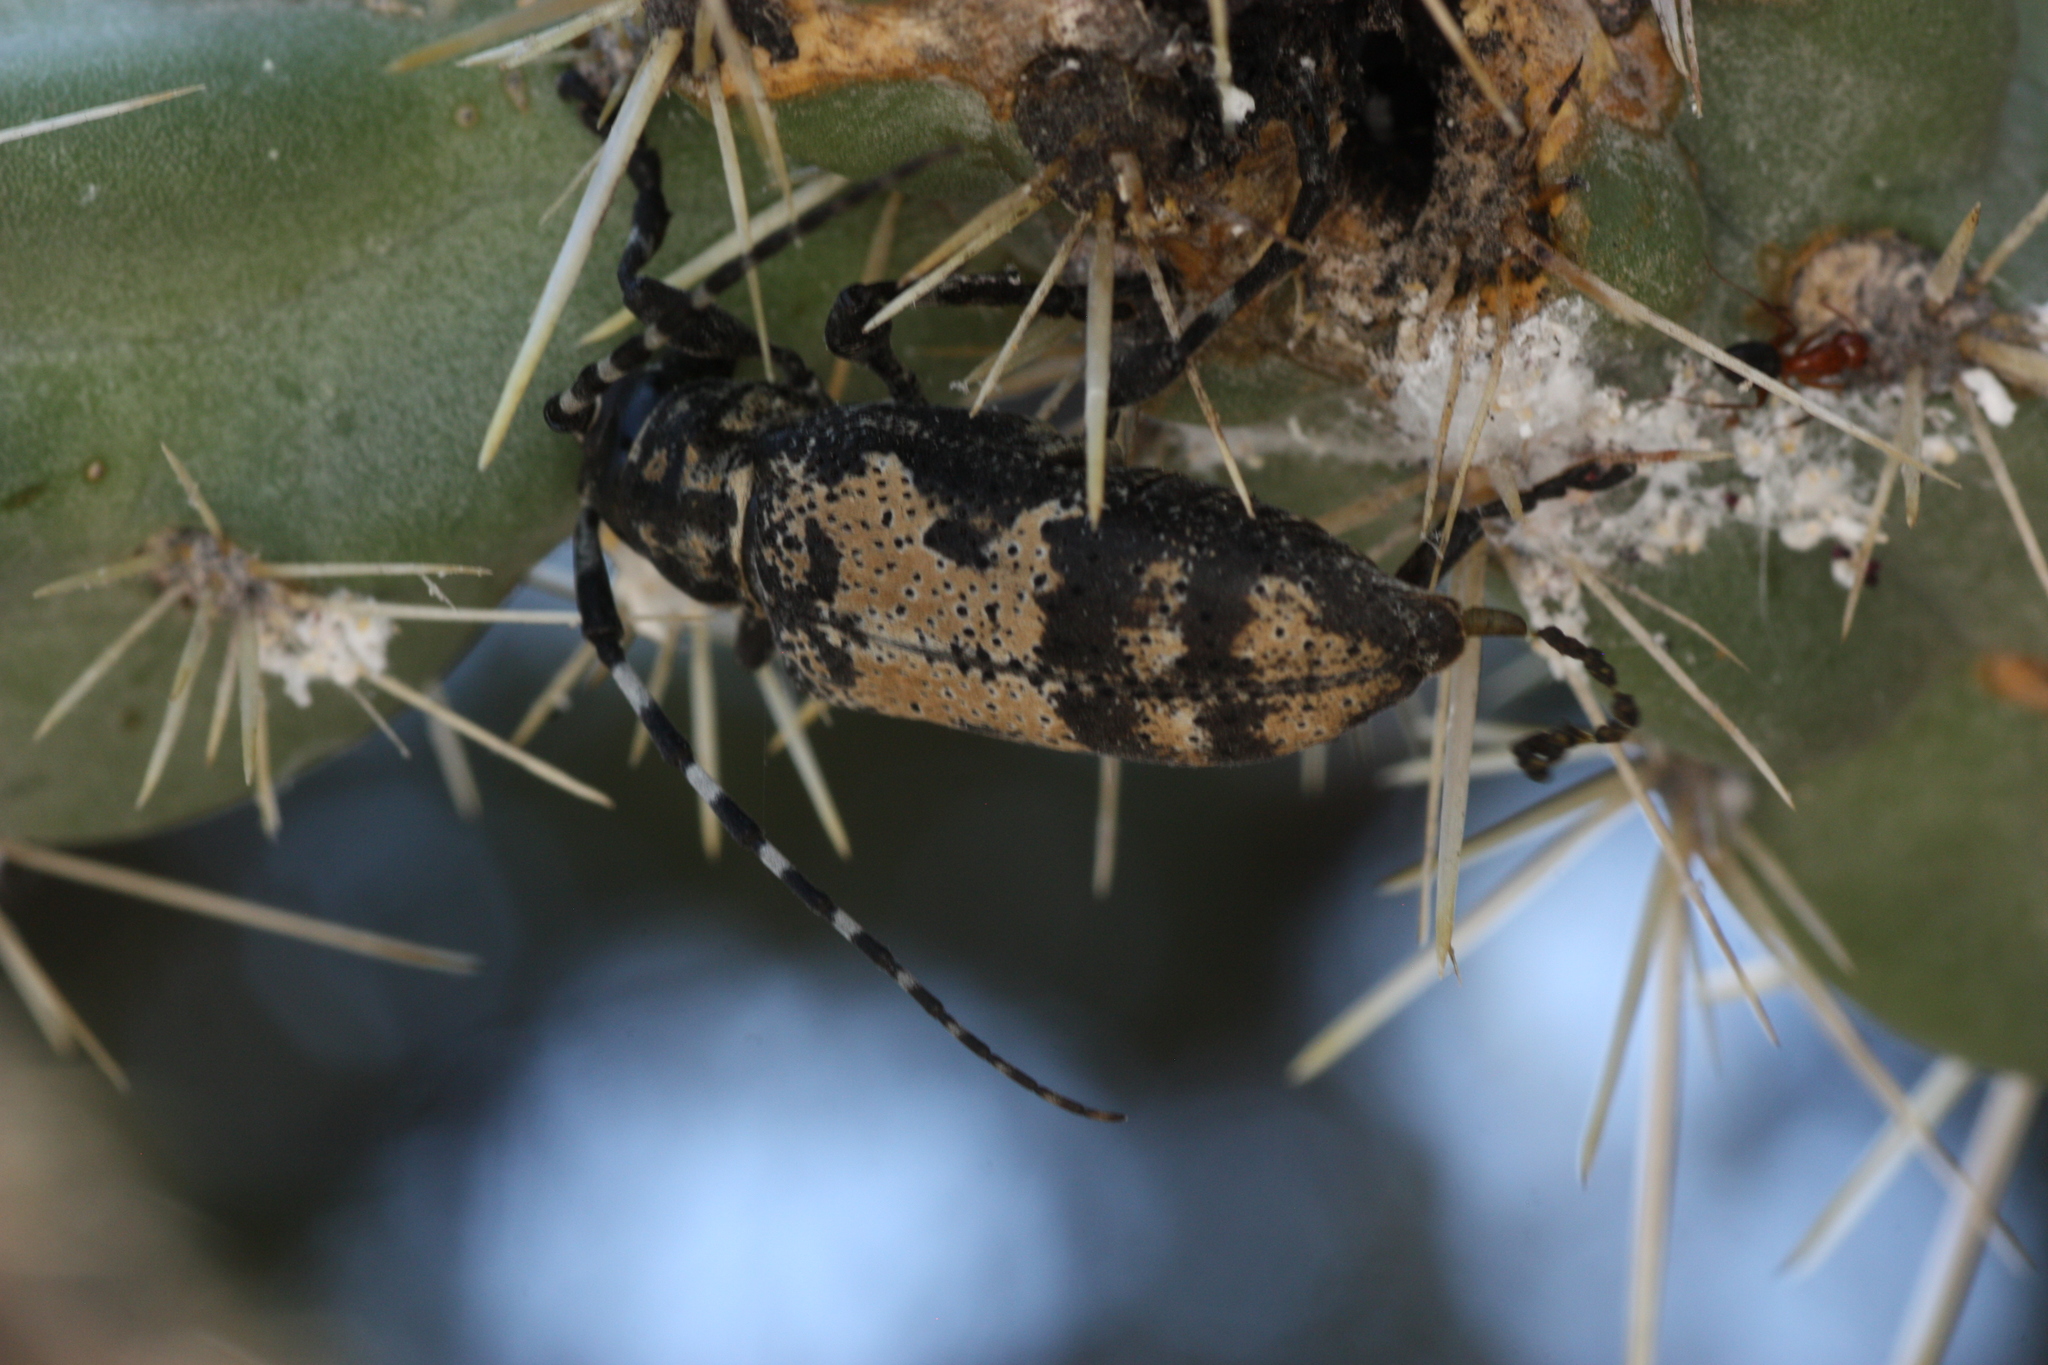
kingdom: Animalia
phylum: Arthropoda
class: Insecta
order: Coleoptera
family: Cerambycidae
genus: Coenopoeus
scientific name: Coenopoeus palmeri
